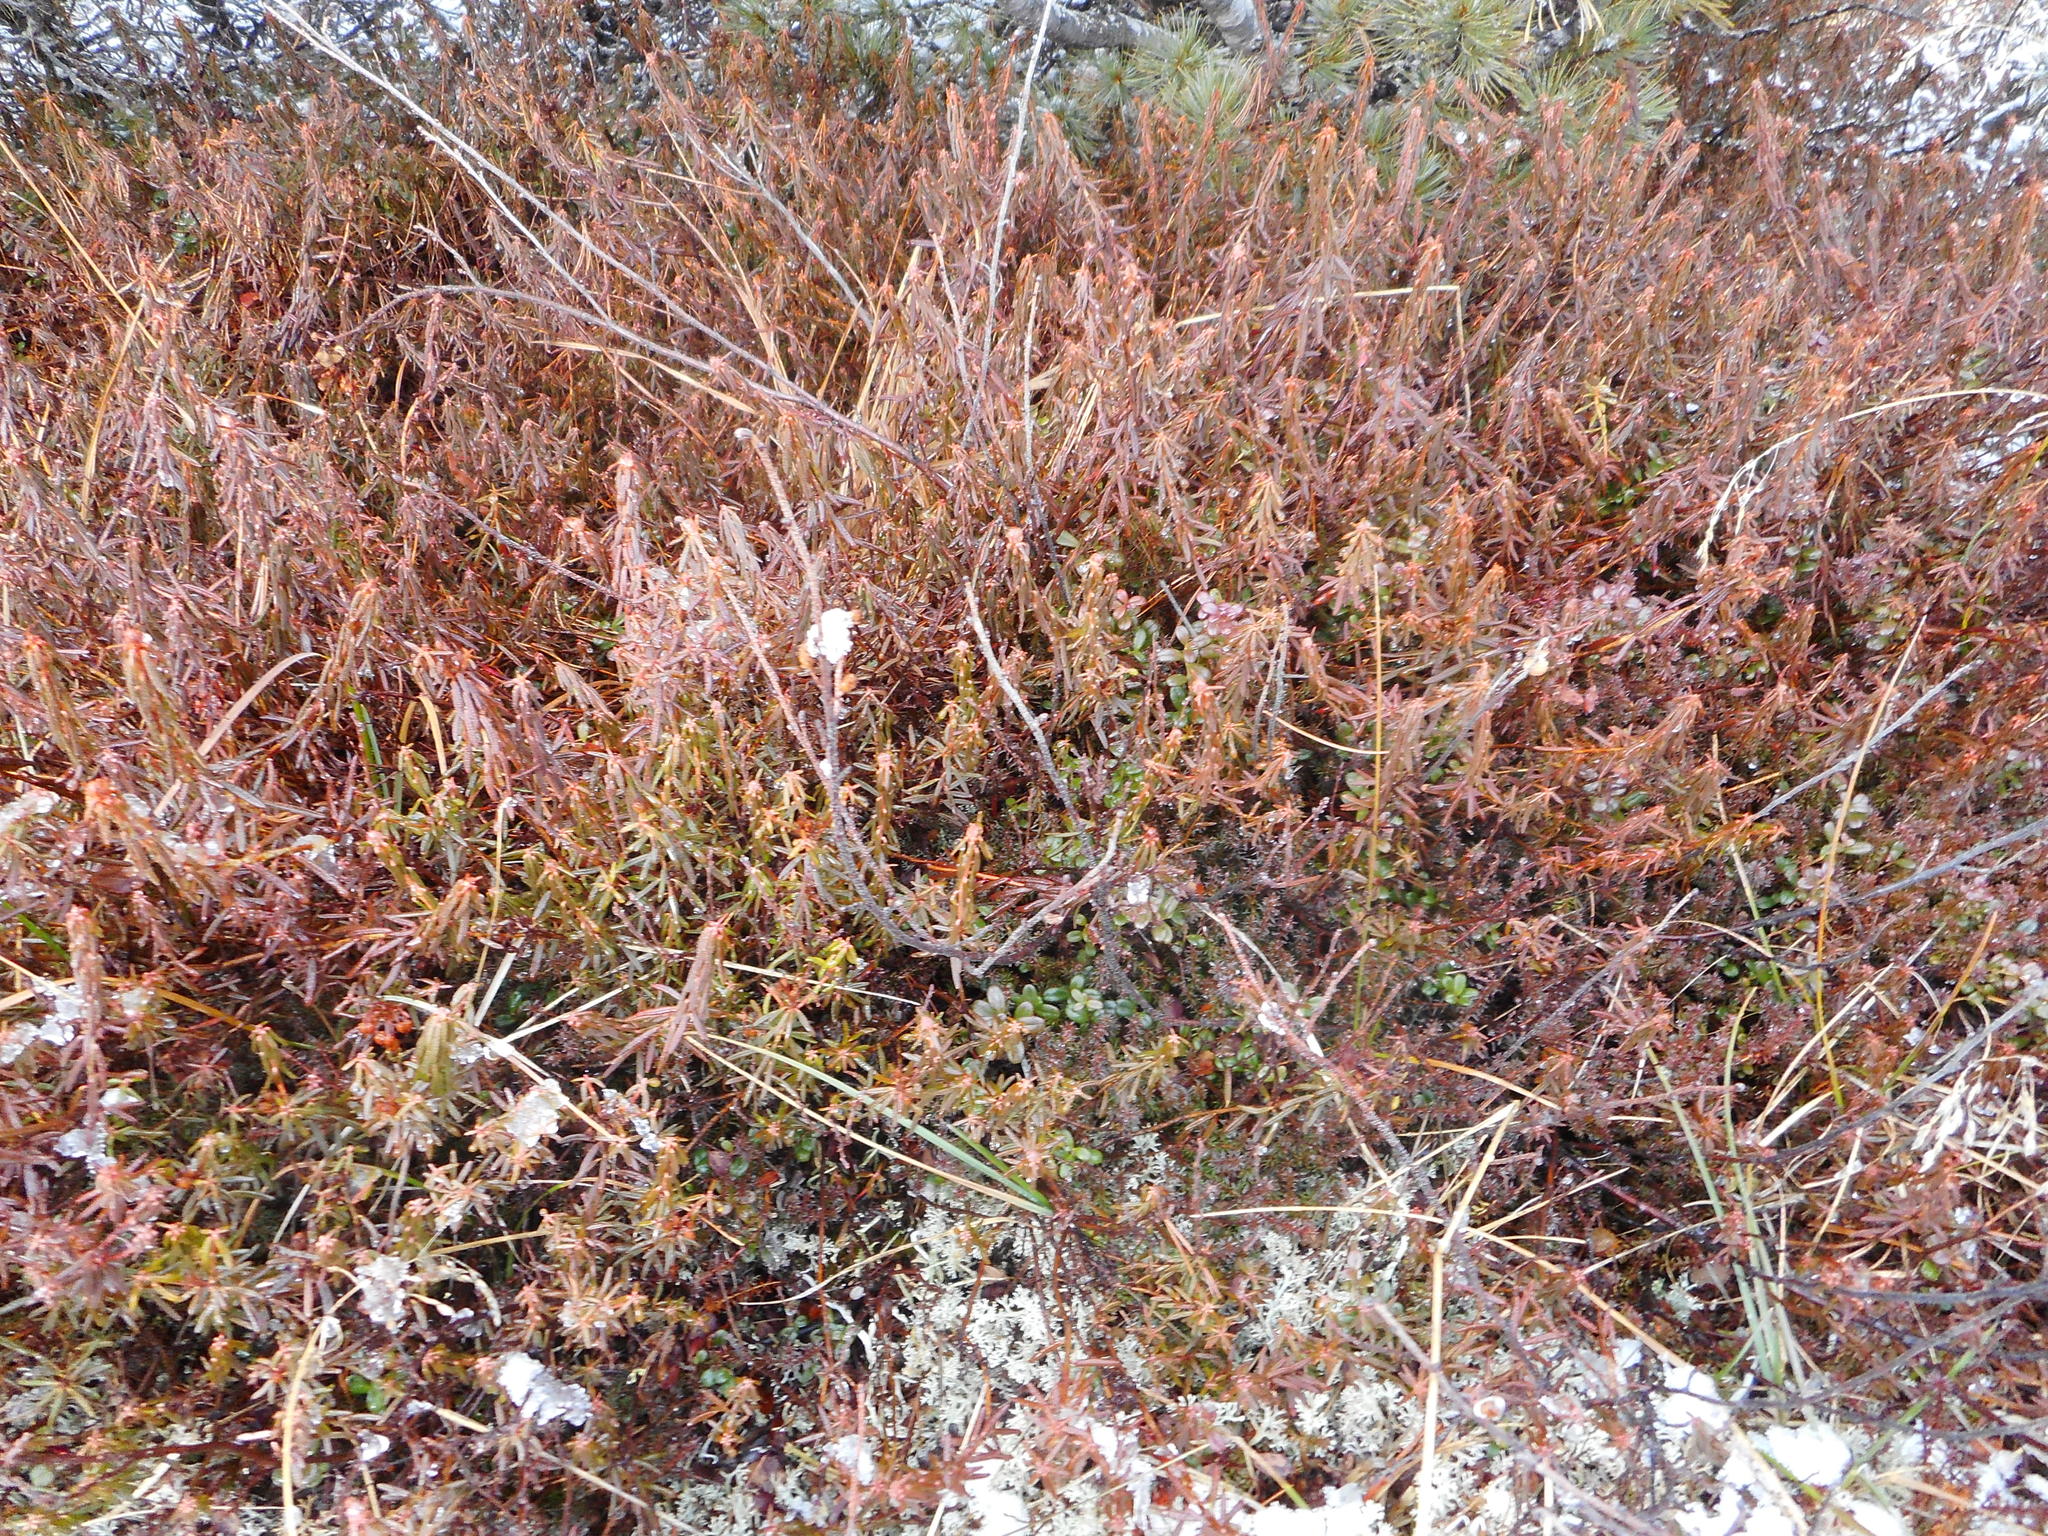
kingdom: Plantae
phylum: Tracheophyta
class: Magnoliopsida
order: Ericales
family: Ericaceae
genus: Rhododendron
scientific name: Rhododendron tomentosum
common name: Marsh labrador tea
